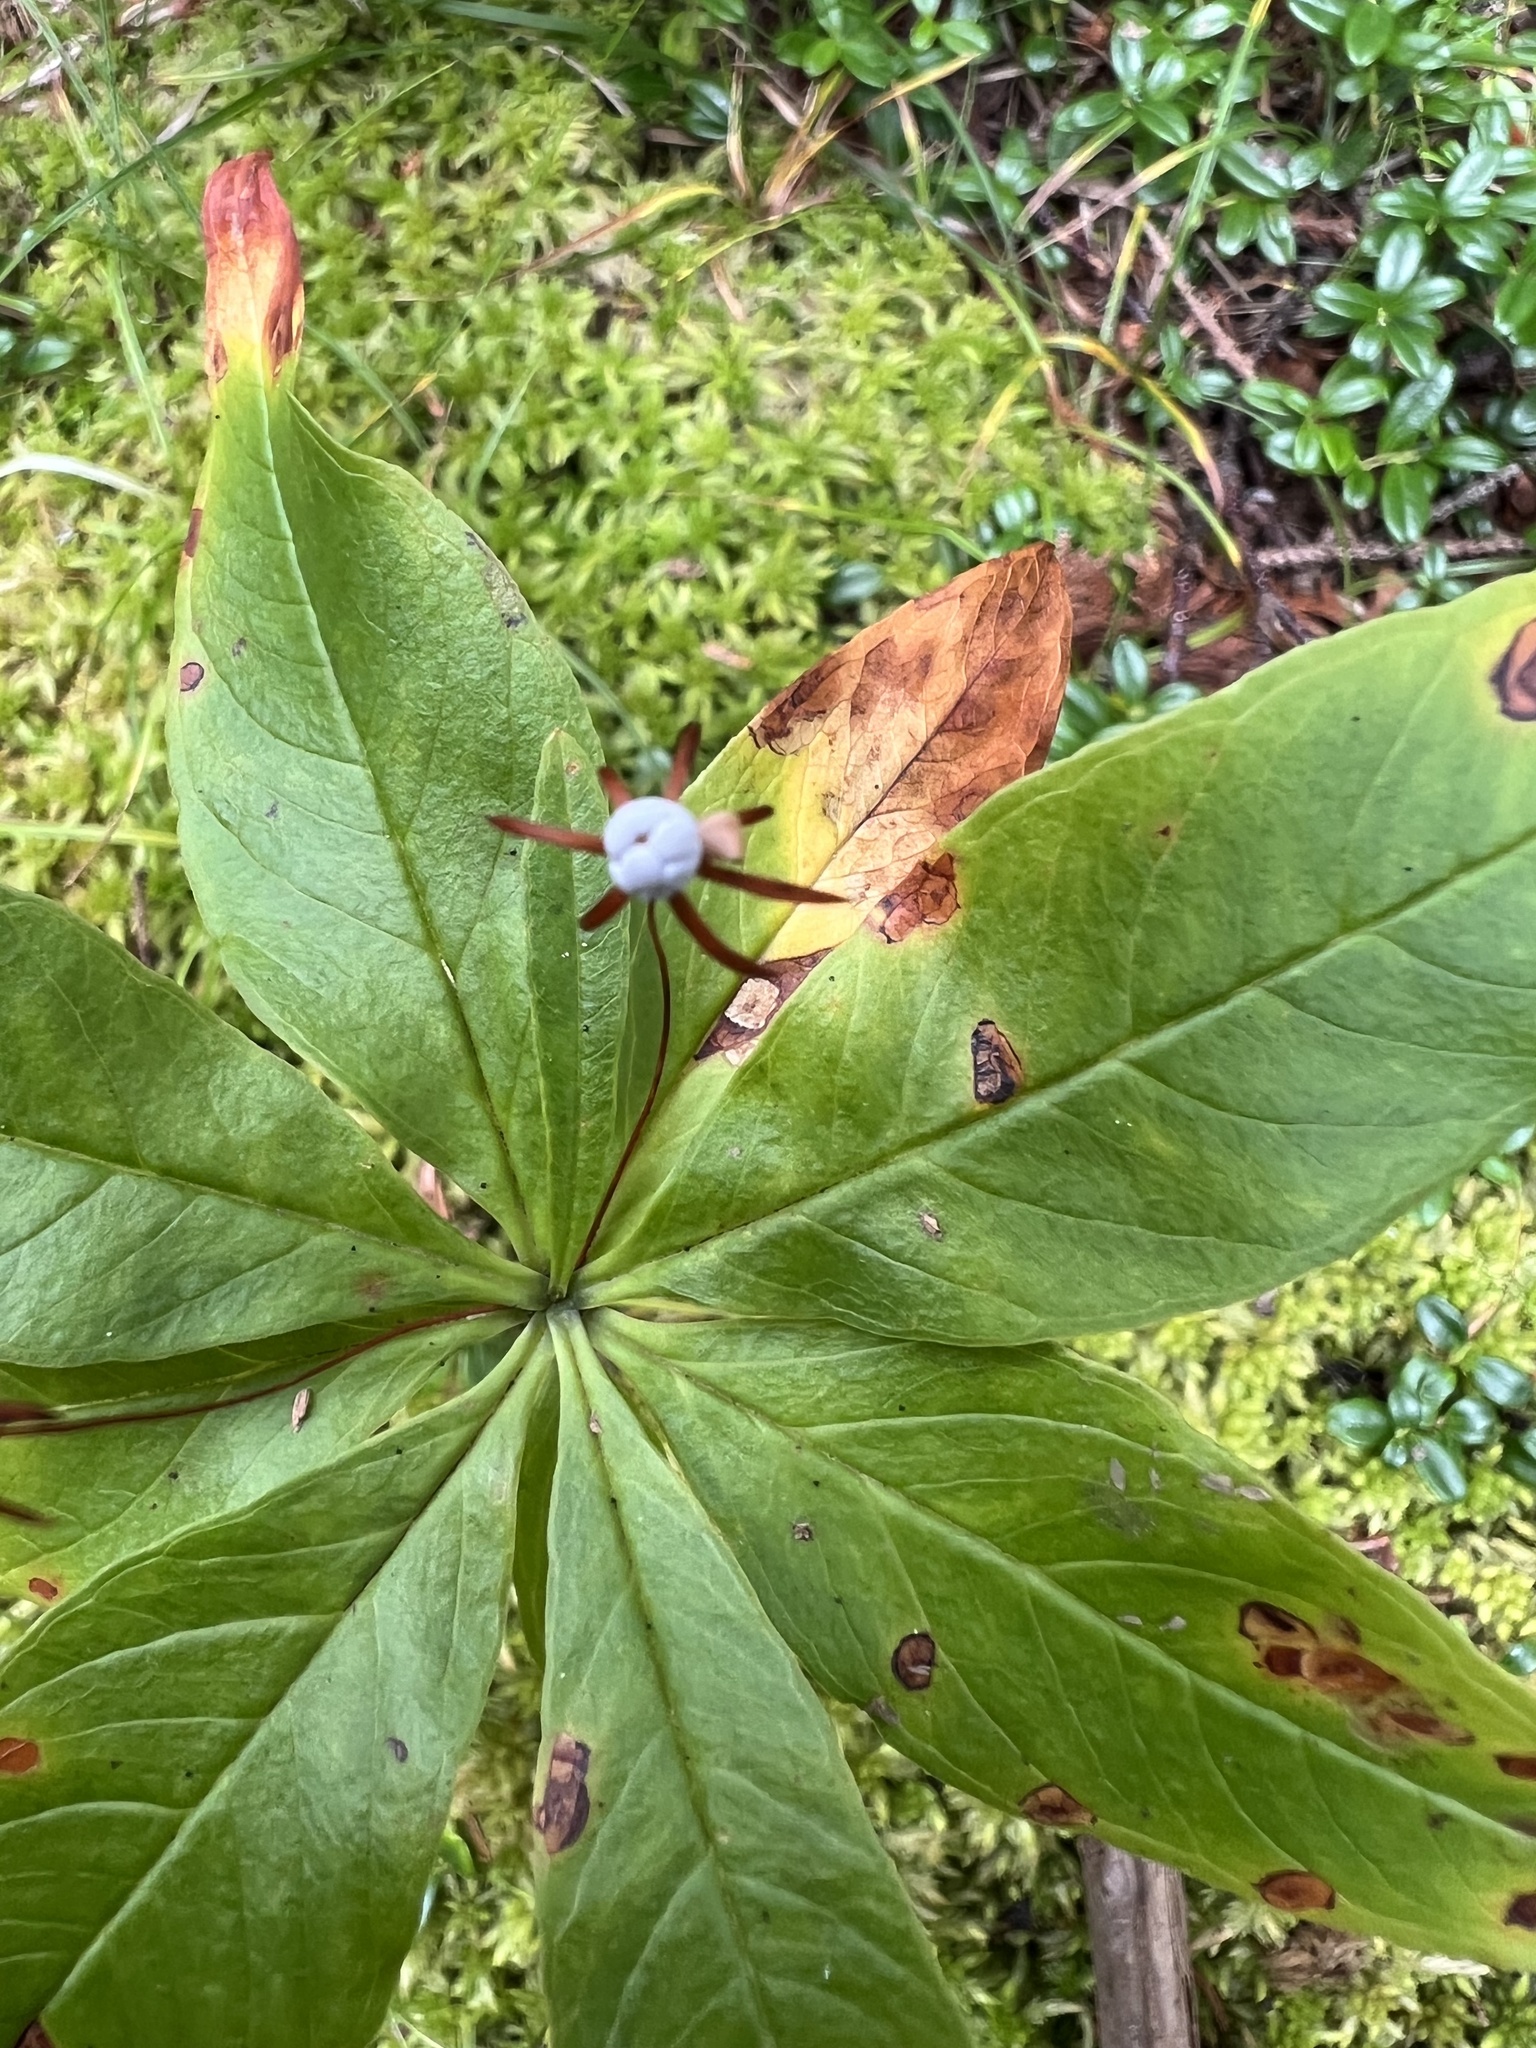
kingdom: Plantae
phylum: Tracheophyta
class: Magnoliopsida
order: Ericales
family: Primulaceae
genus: Lysimachia
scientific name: Lysimachia borealis
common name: American starflower
